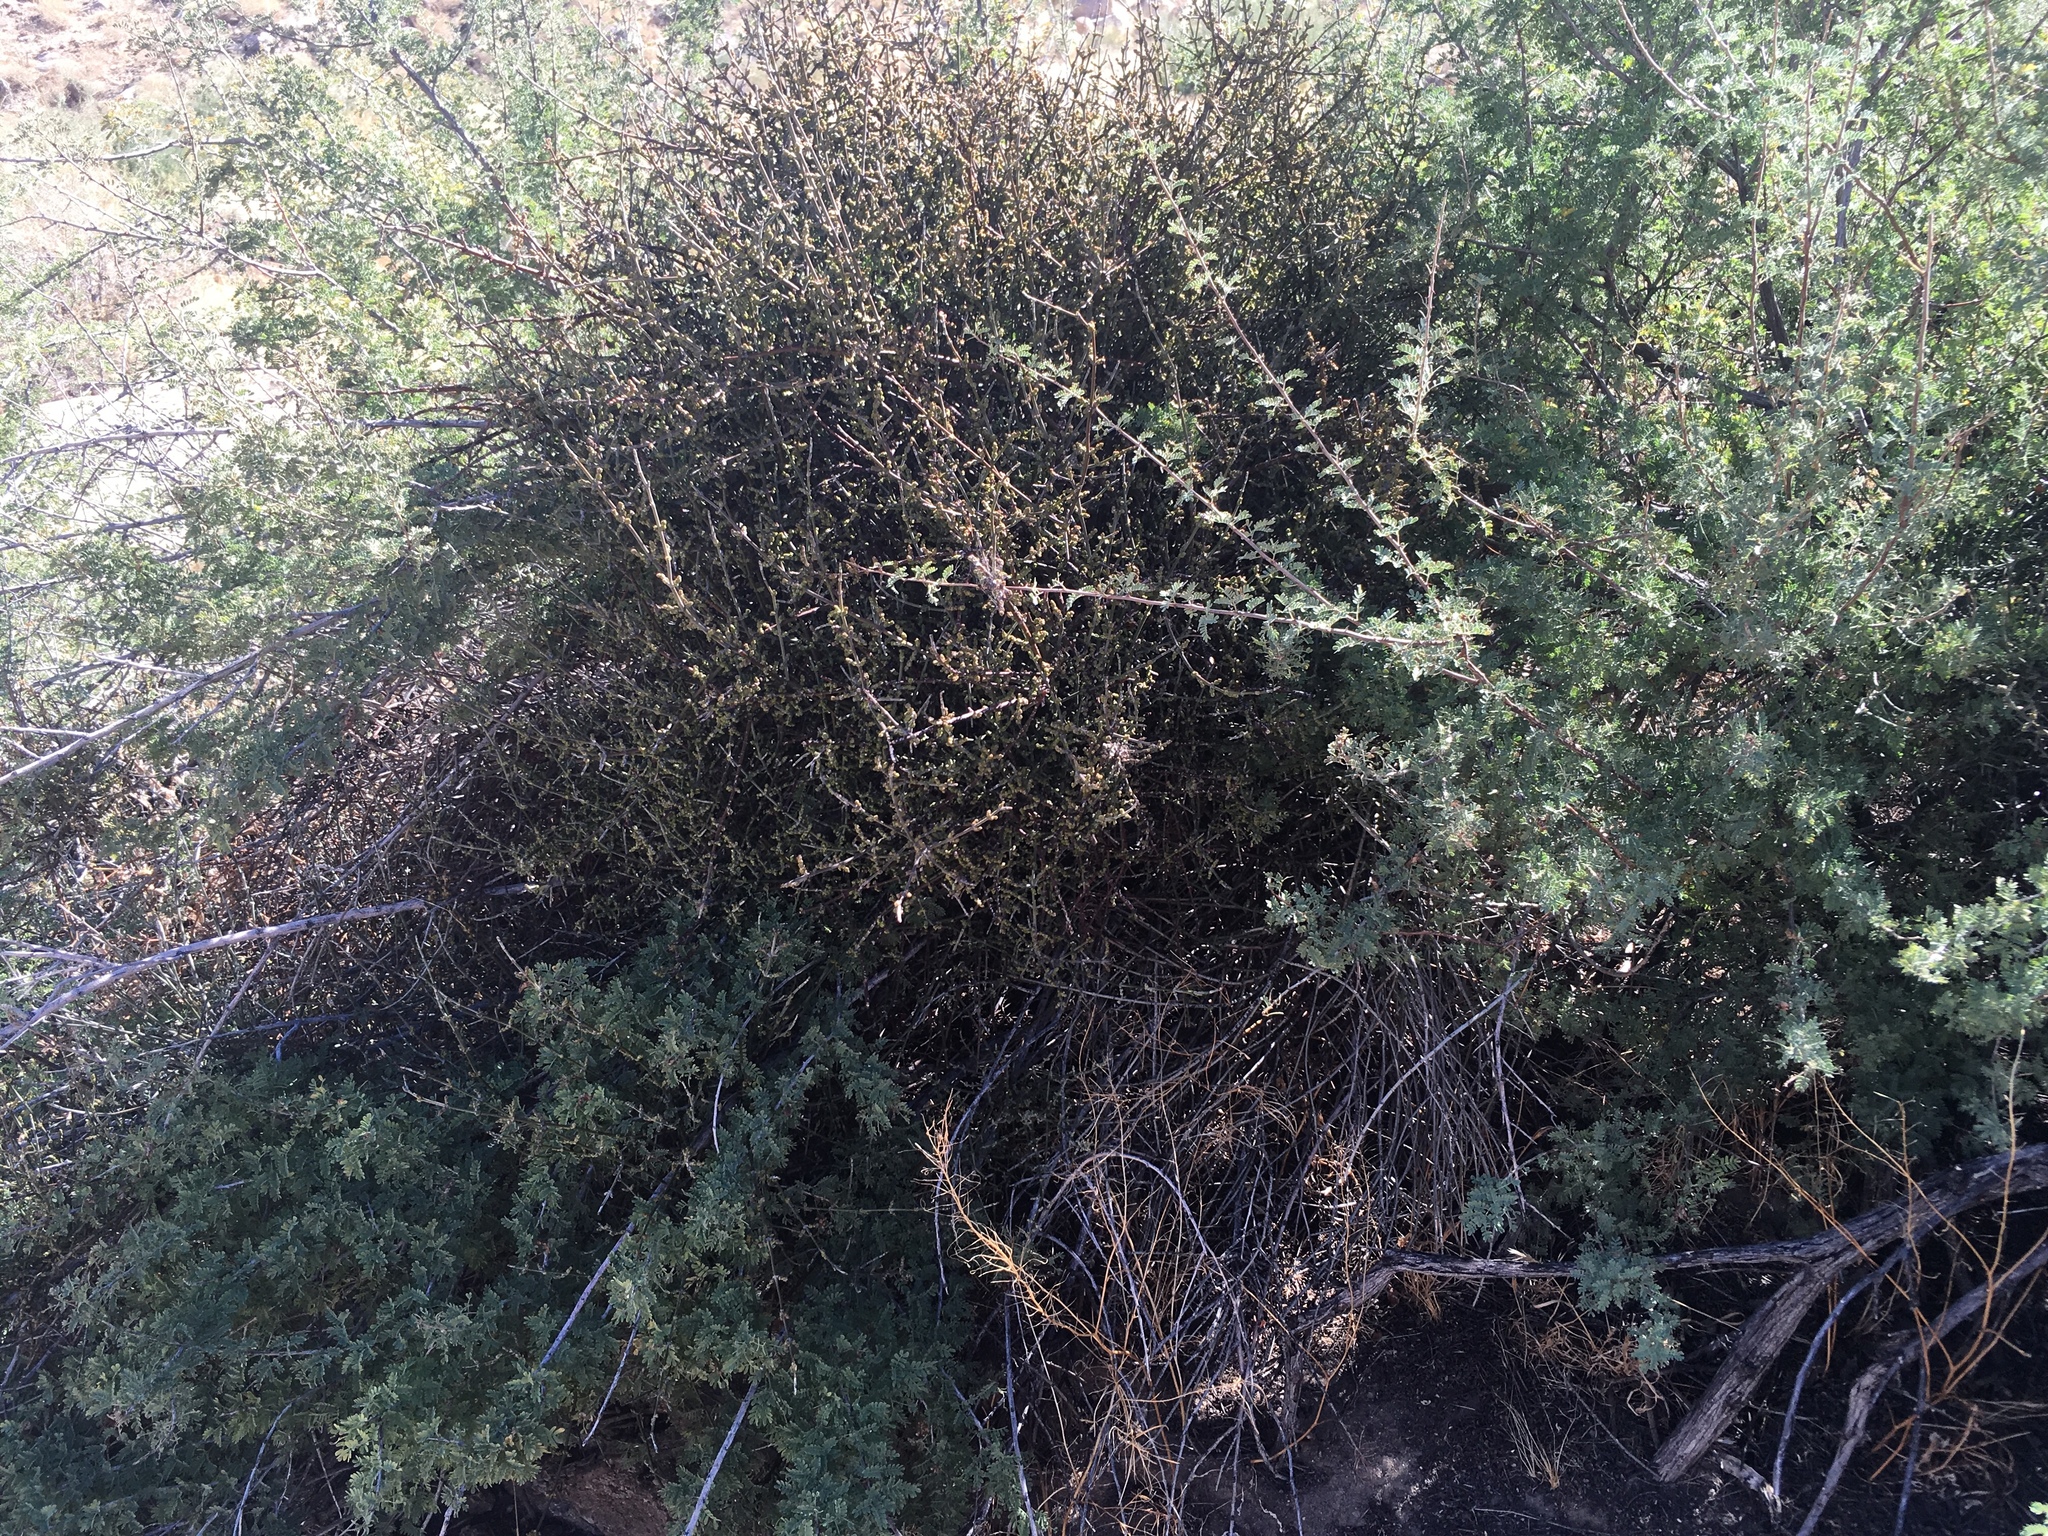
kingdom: Plantae
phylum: Tracheophyta
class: Magnoliopsida
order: Santalales
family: Viscaceae
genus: Phoradendron
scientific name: Phoradendron californicum
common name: Acacia mistletoe
